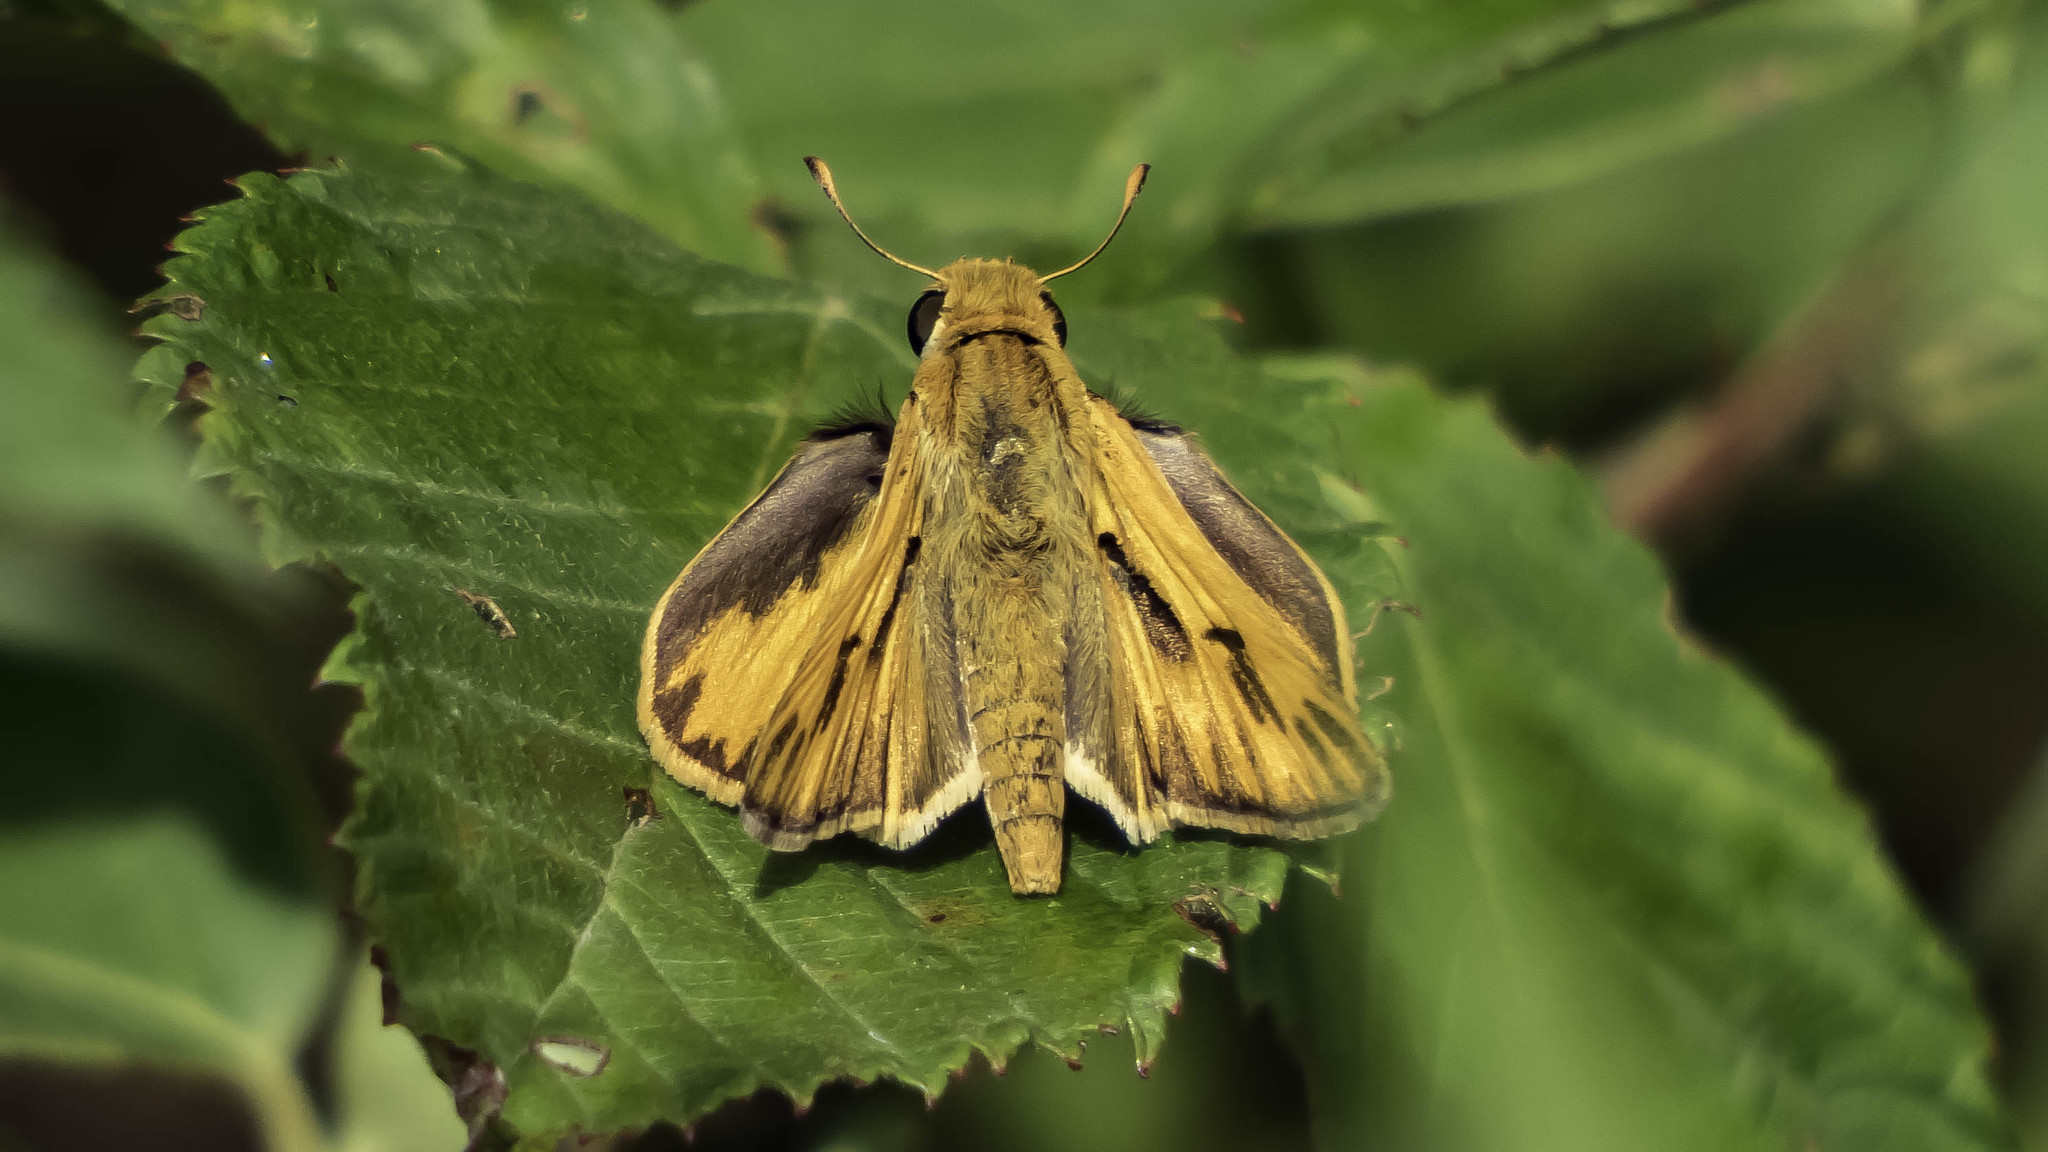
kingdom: Animalia
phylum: Arthropoda
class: Insecta
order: Lepidoptera
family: Hesperiidae
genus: Hylephila
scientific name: Hylephila phyleus
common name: Fiery skipper
